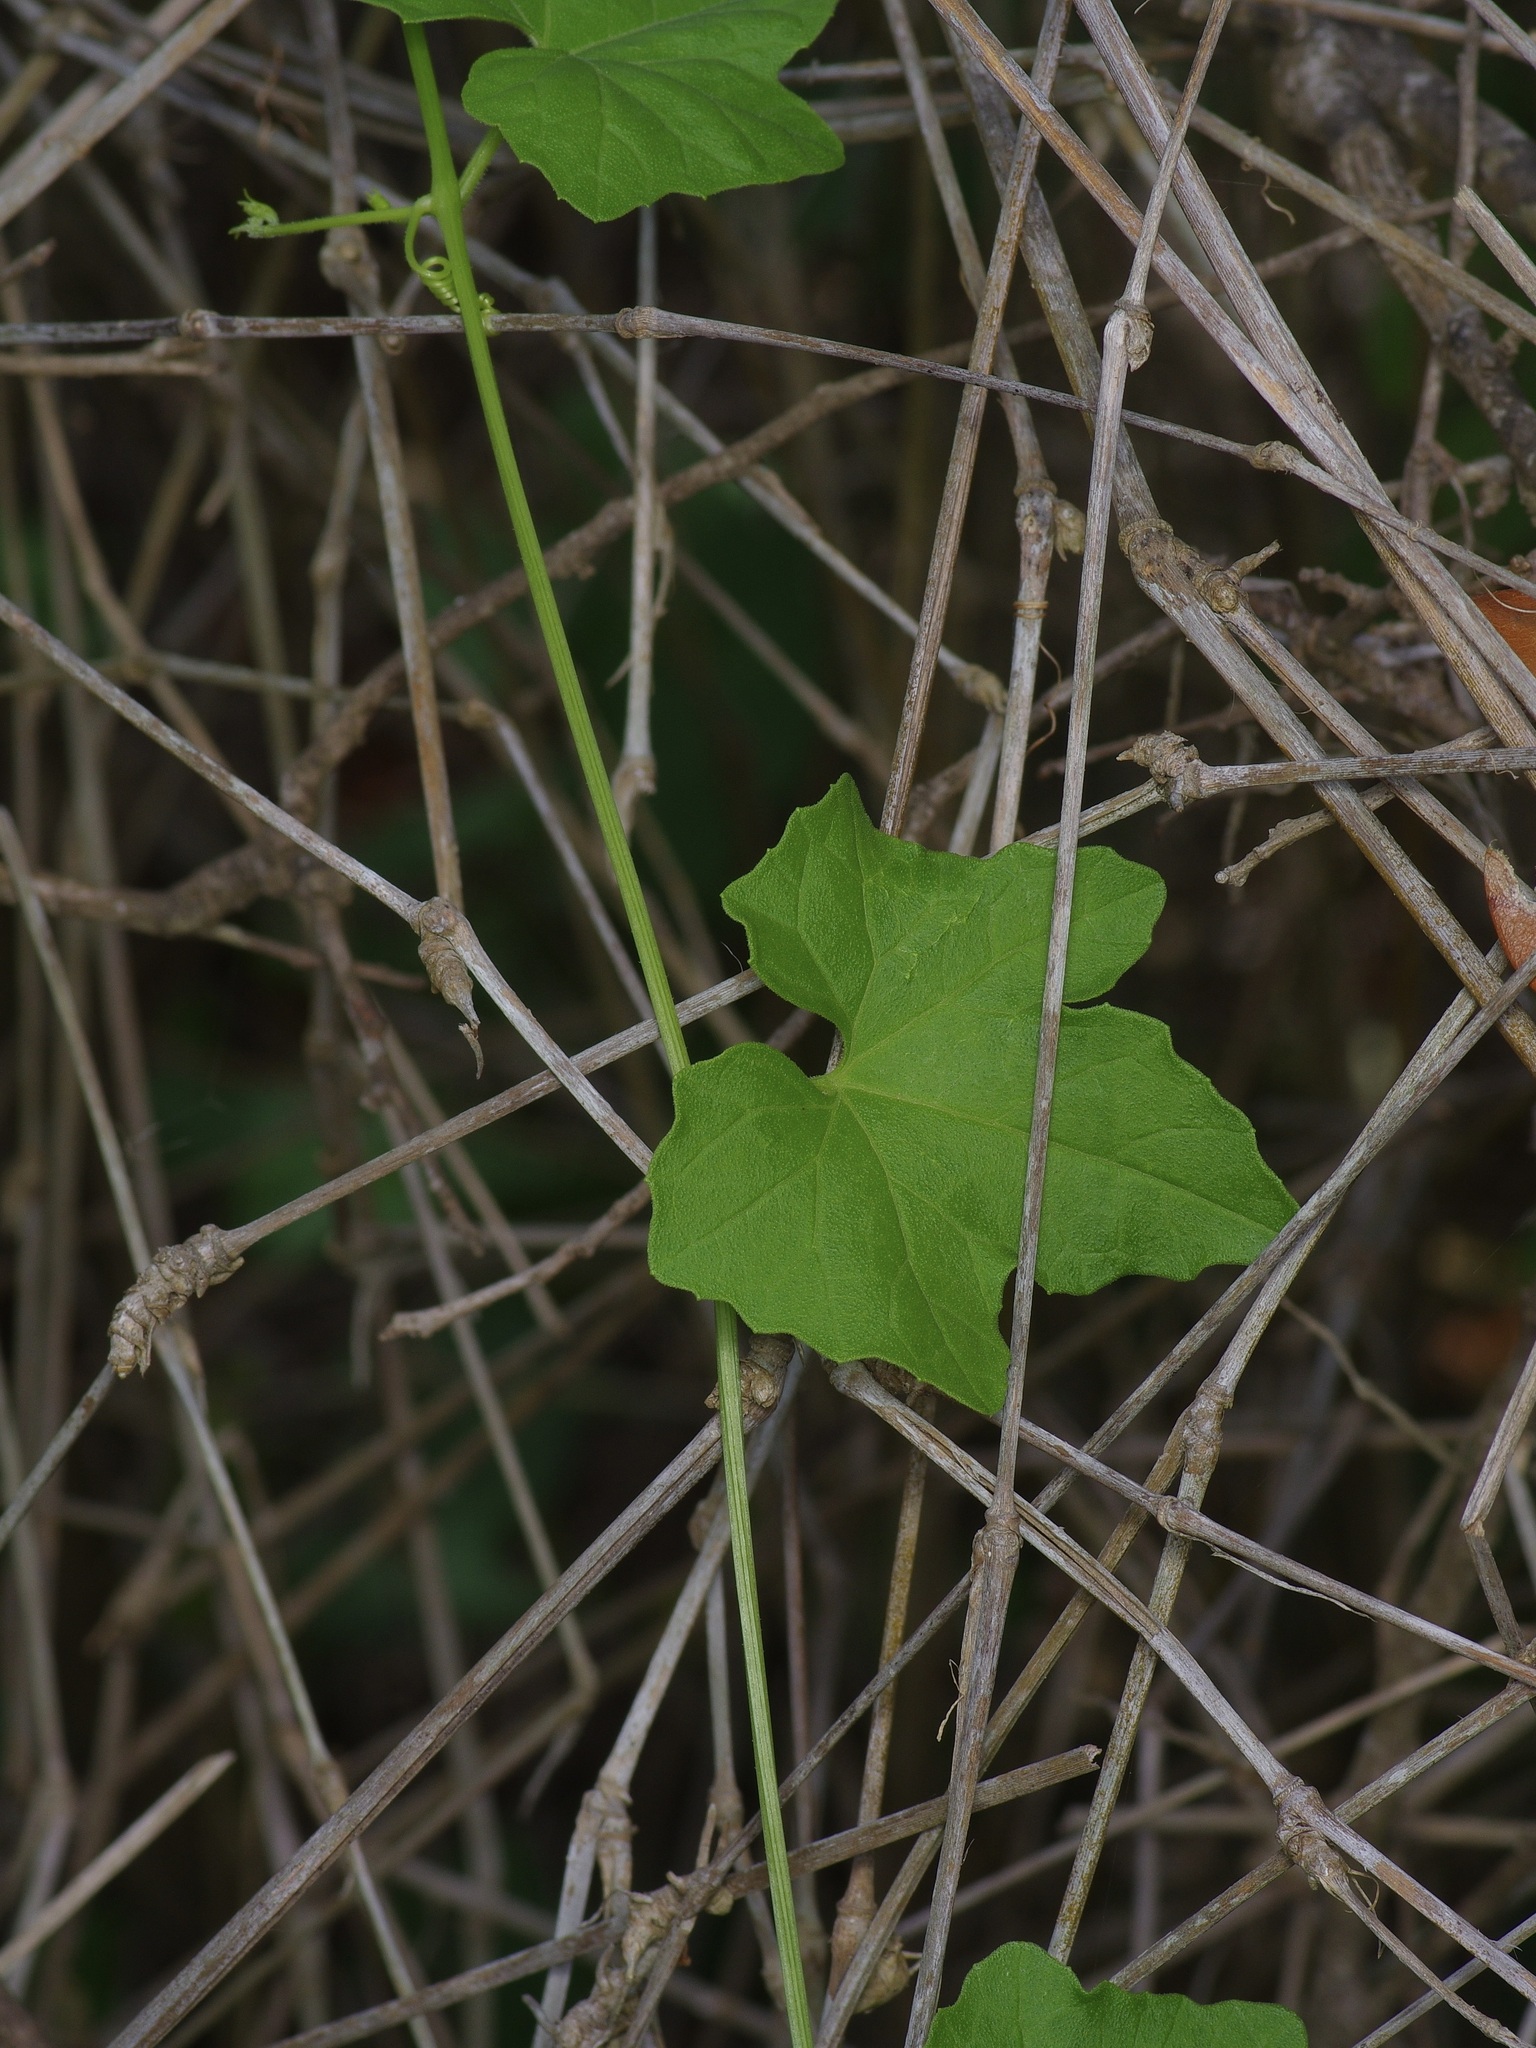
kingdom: Plantae
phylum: Tracheophyta
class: Magnoliopsida
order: Cucurbitales
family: Cucurbitaceae
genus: Melothria
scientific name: Melothria pendula
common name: Creeping-cucumber
